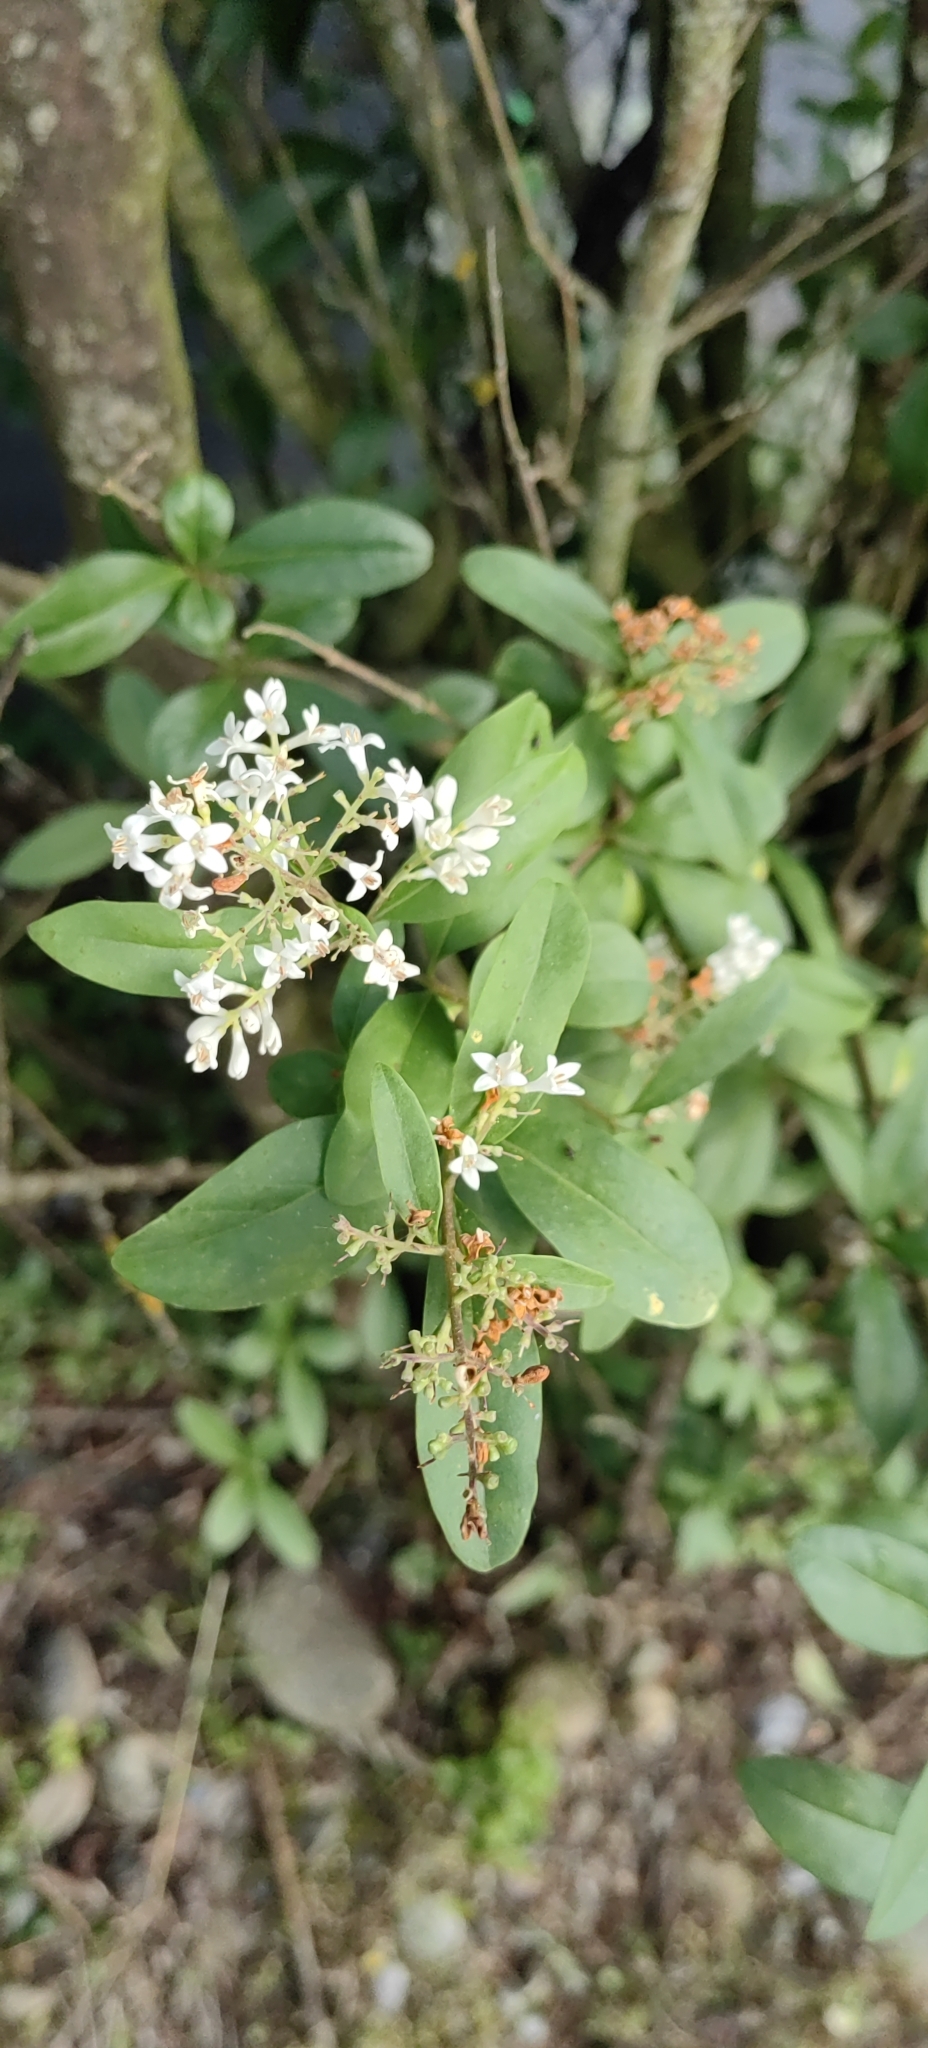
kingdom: Plantae
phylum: Tracheophyta
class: Magnoliopsida
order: Lamiales
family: Oleaceae
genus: Ligustrum
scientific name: Ligustrum vulgare
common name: Wild privet
